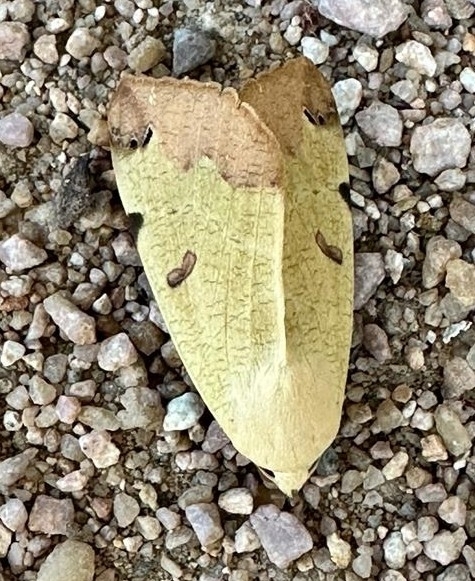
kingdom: Animalia
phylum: Arthropoda
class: Insecta
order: Lepidoptera
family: Erebidae
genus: Ophiusa
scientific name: Ophiusa tirhaca
